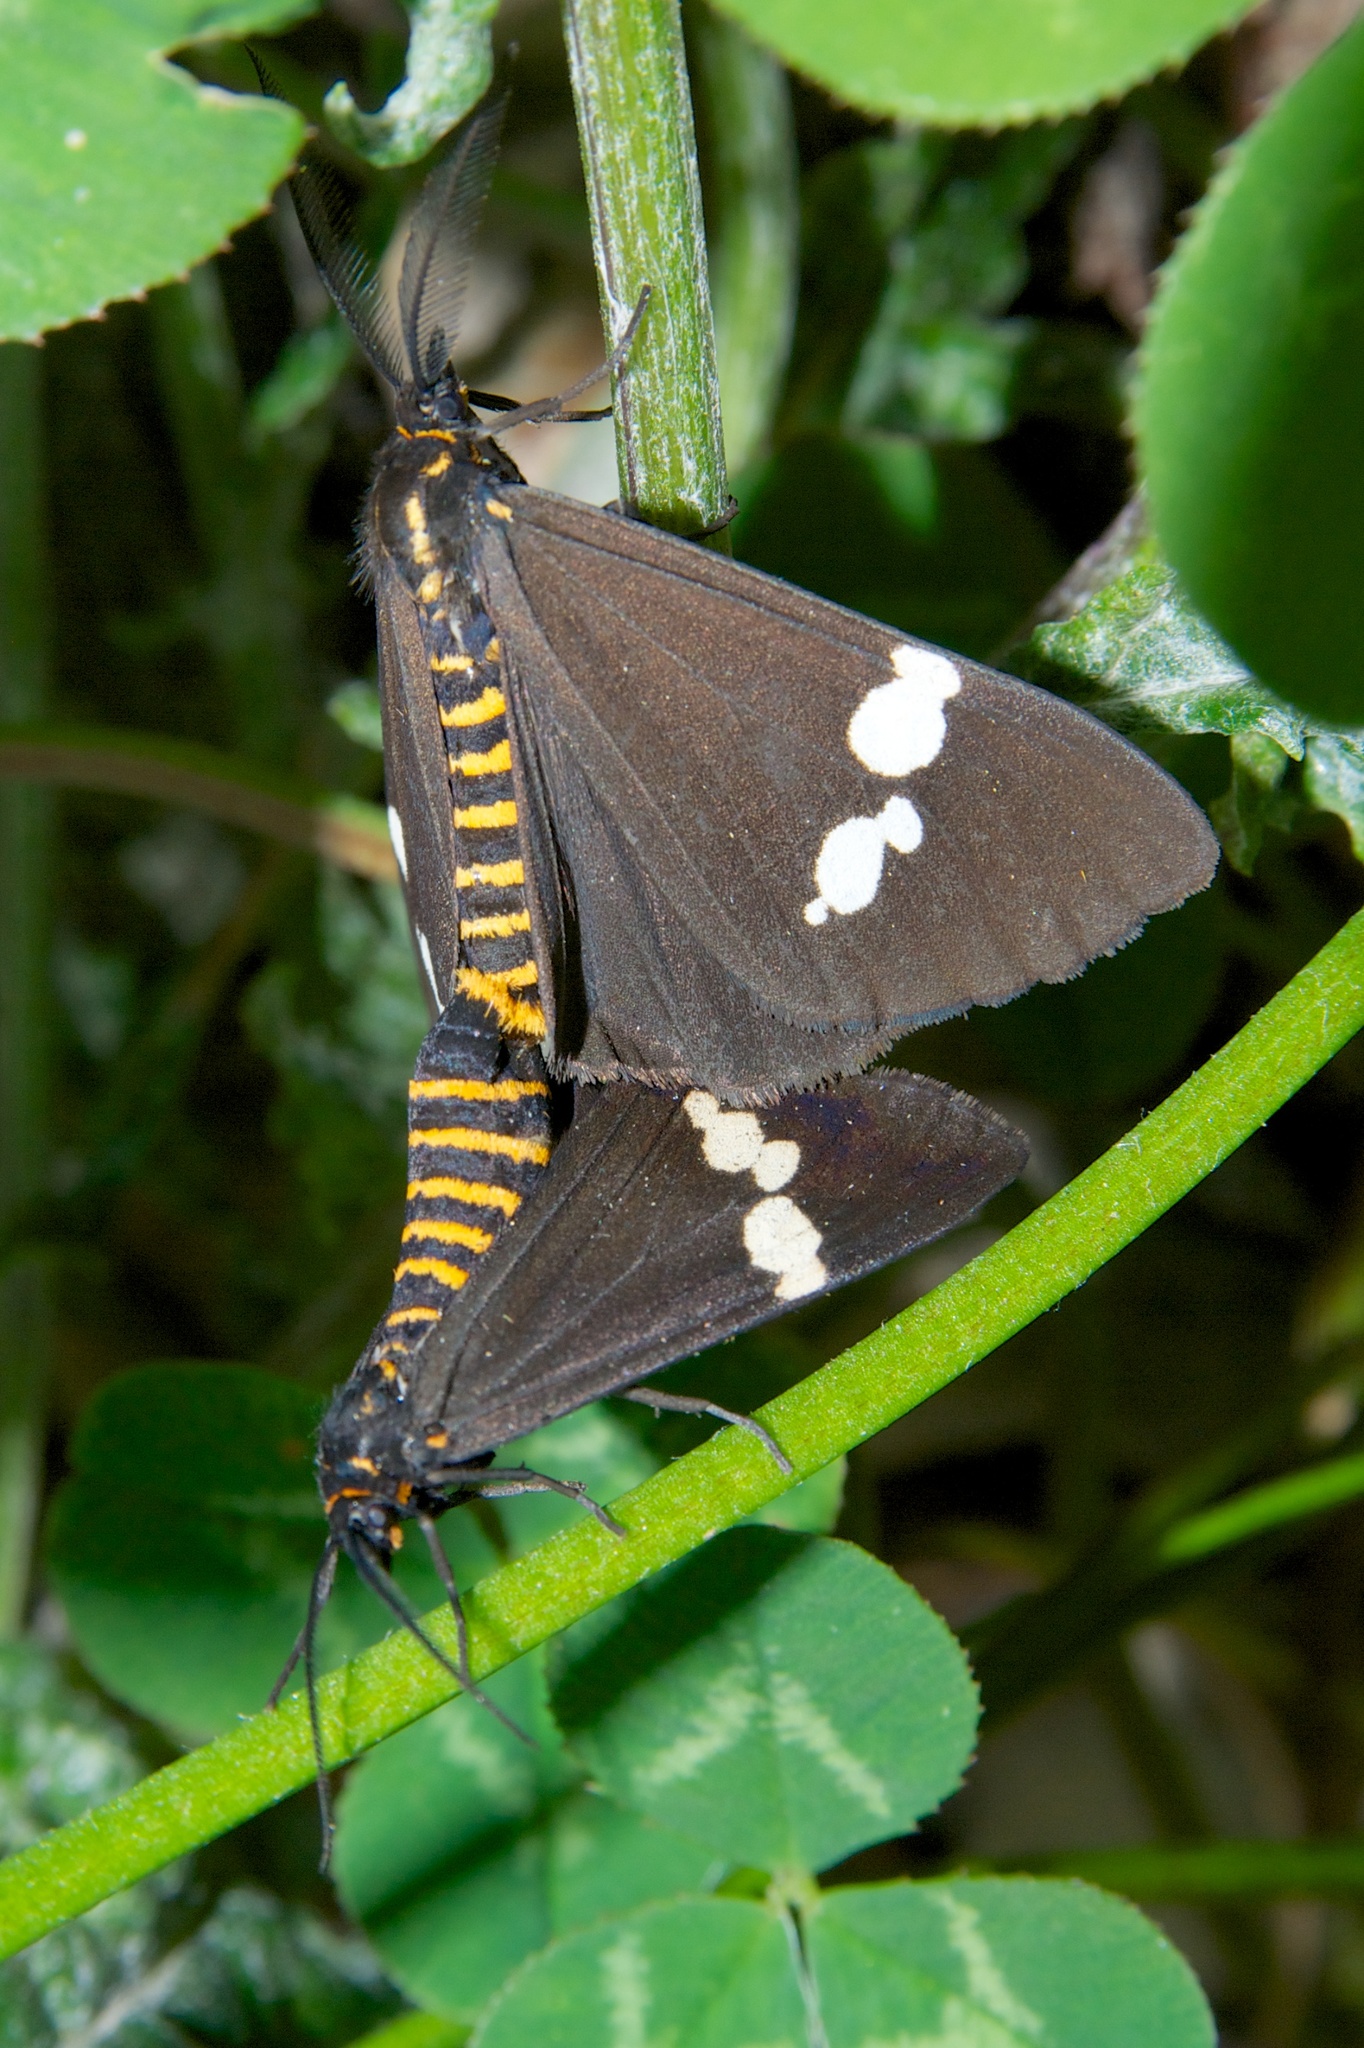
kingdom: Animalia
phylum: Arthropoda
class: Insecta
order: Lepidoptera
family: Erebidae
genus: Nyctemera
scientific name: Nyctemera annulatum
